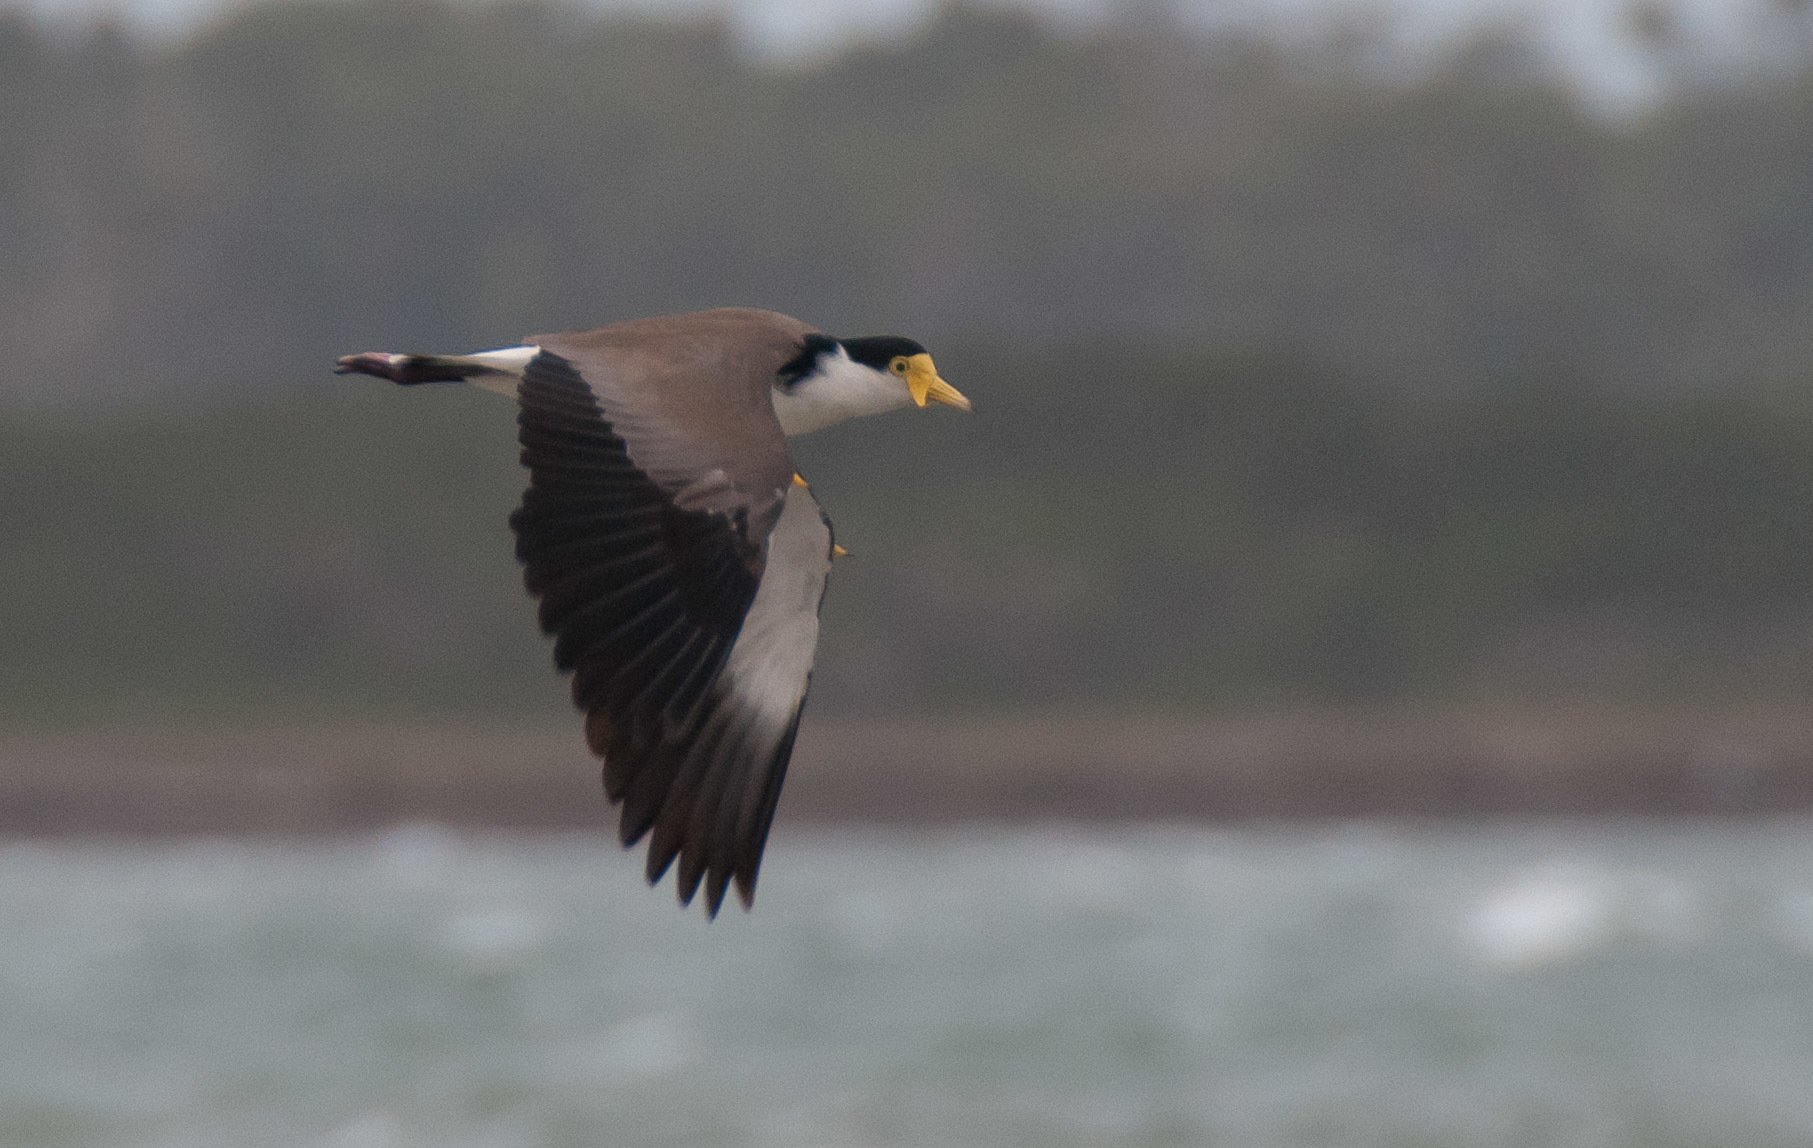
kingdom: Animalia
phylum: Chordata
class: Aves
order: Charadriiformes
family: Charadriidae
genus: Vanellus
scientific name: Vanellus miles
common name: Masked lapwing
